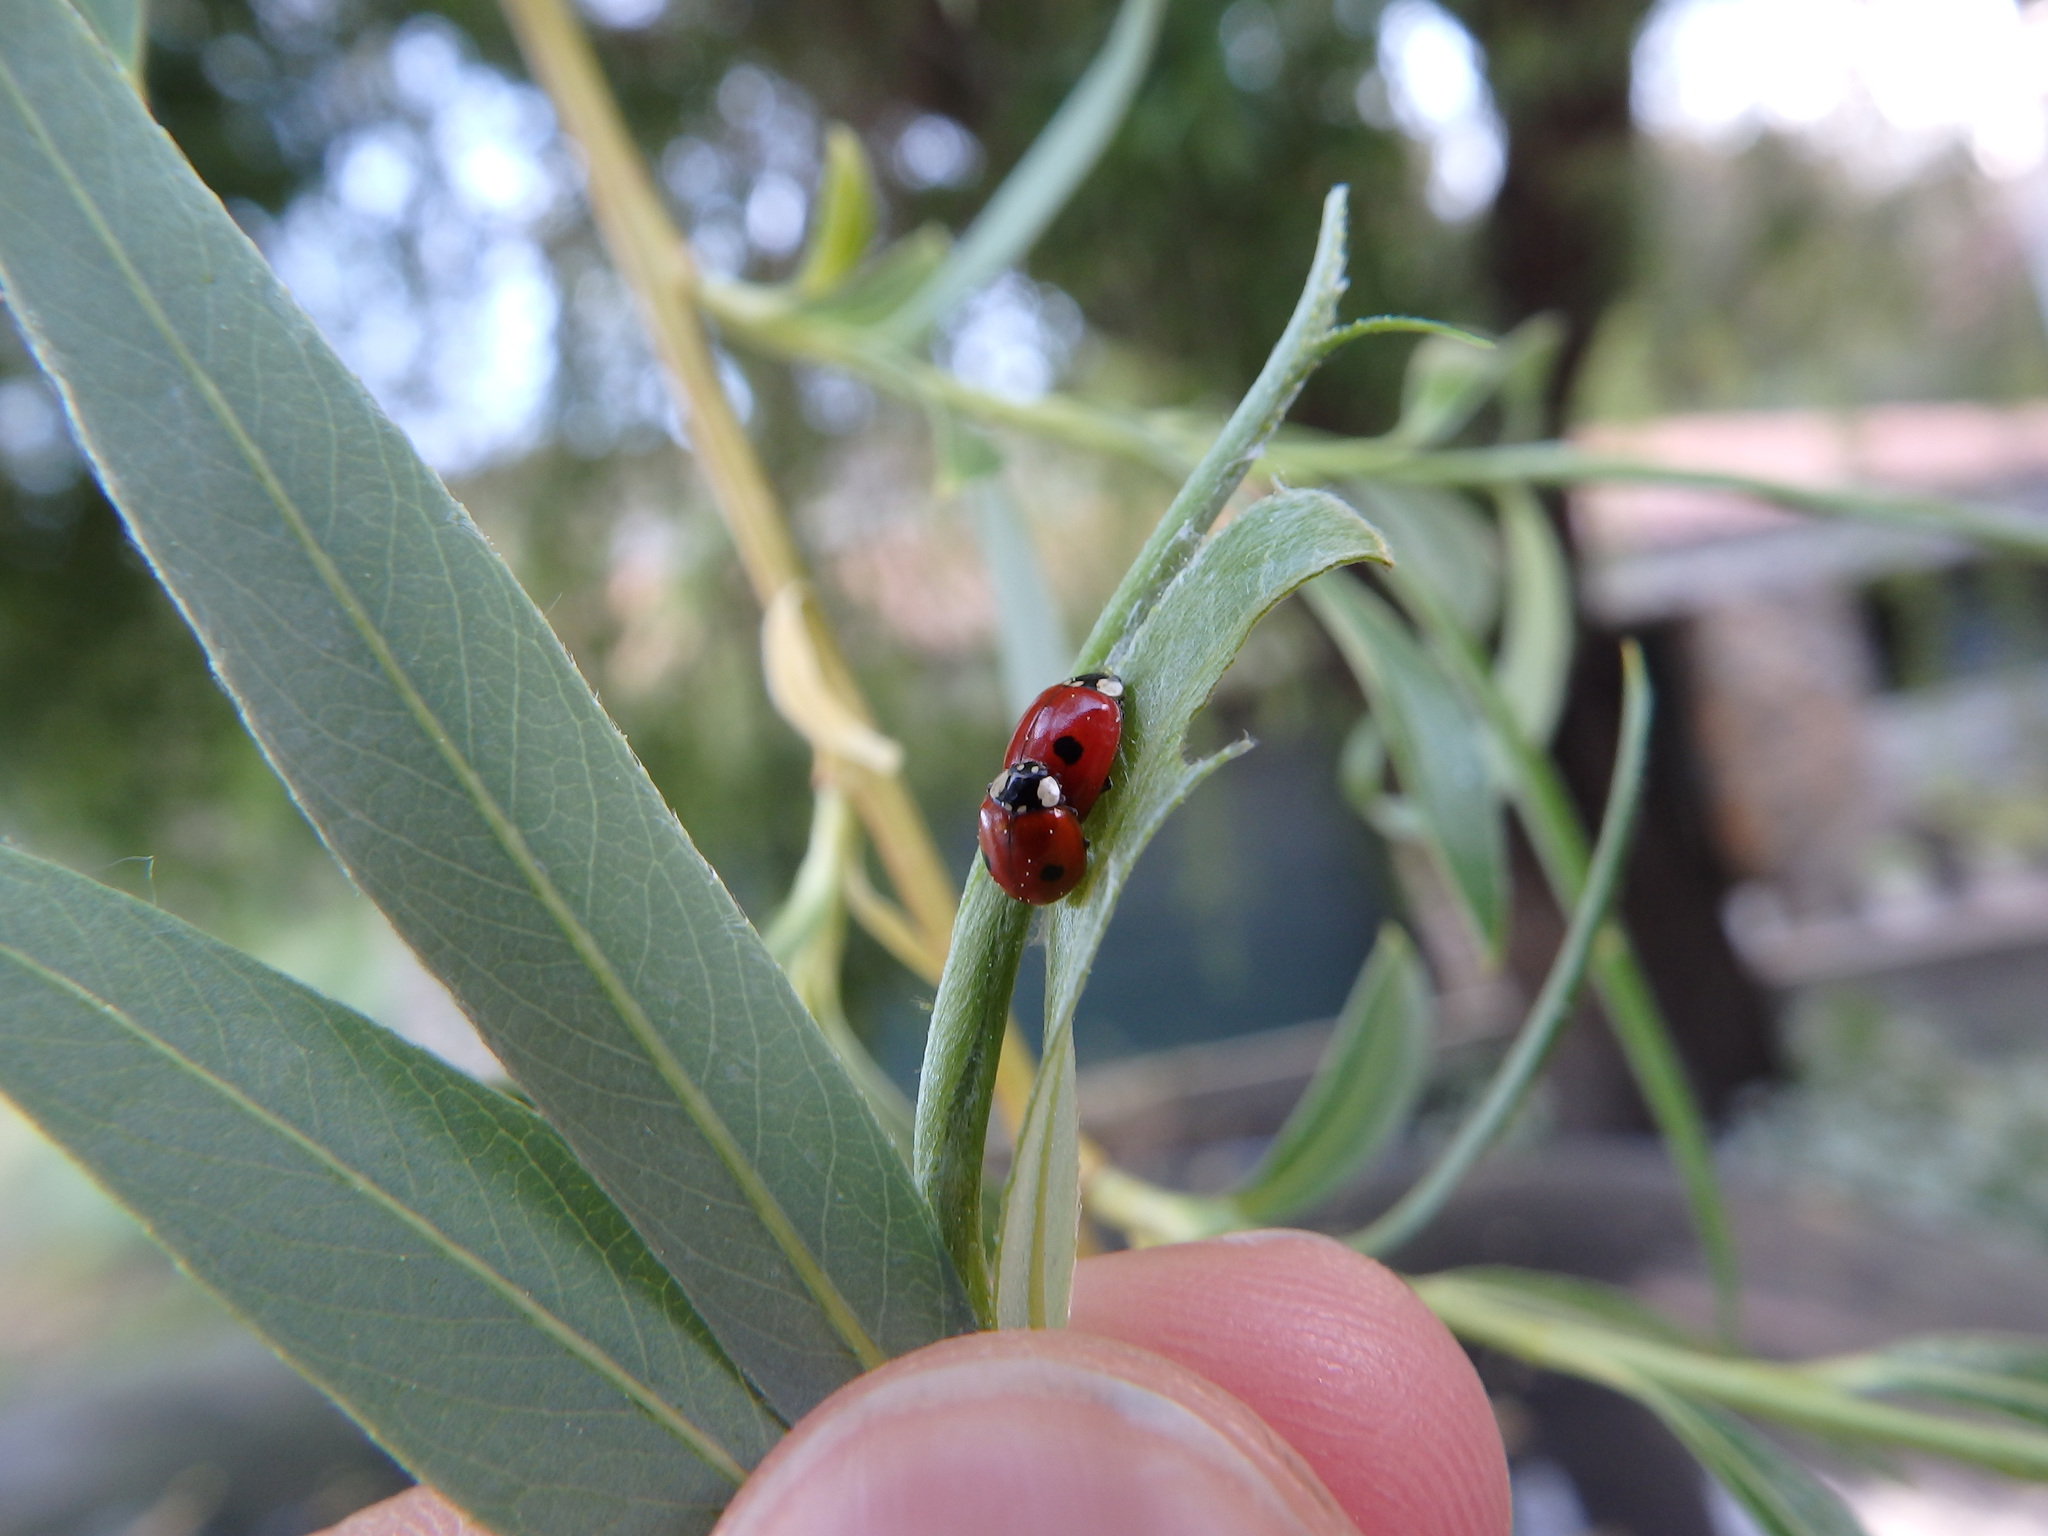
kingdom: Animalia
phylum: Arthropoda
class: Insecta
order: Coleoptera
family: Coccinellidae
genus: Adalia
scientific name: Adalia bipunctata
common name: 2-spot ladybird
